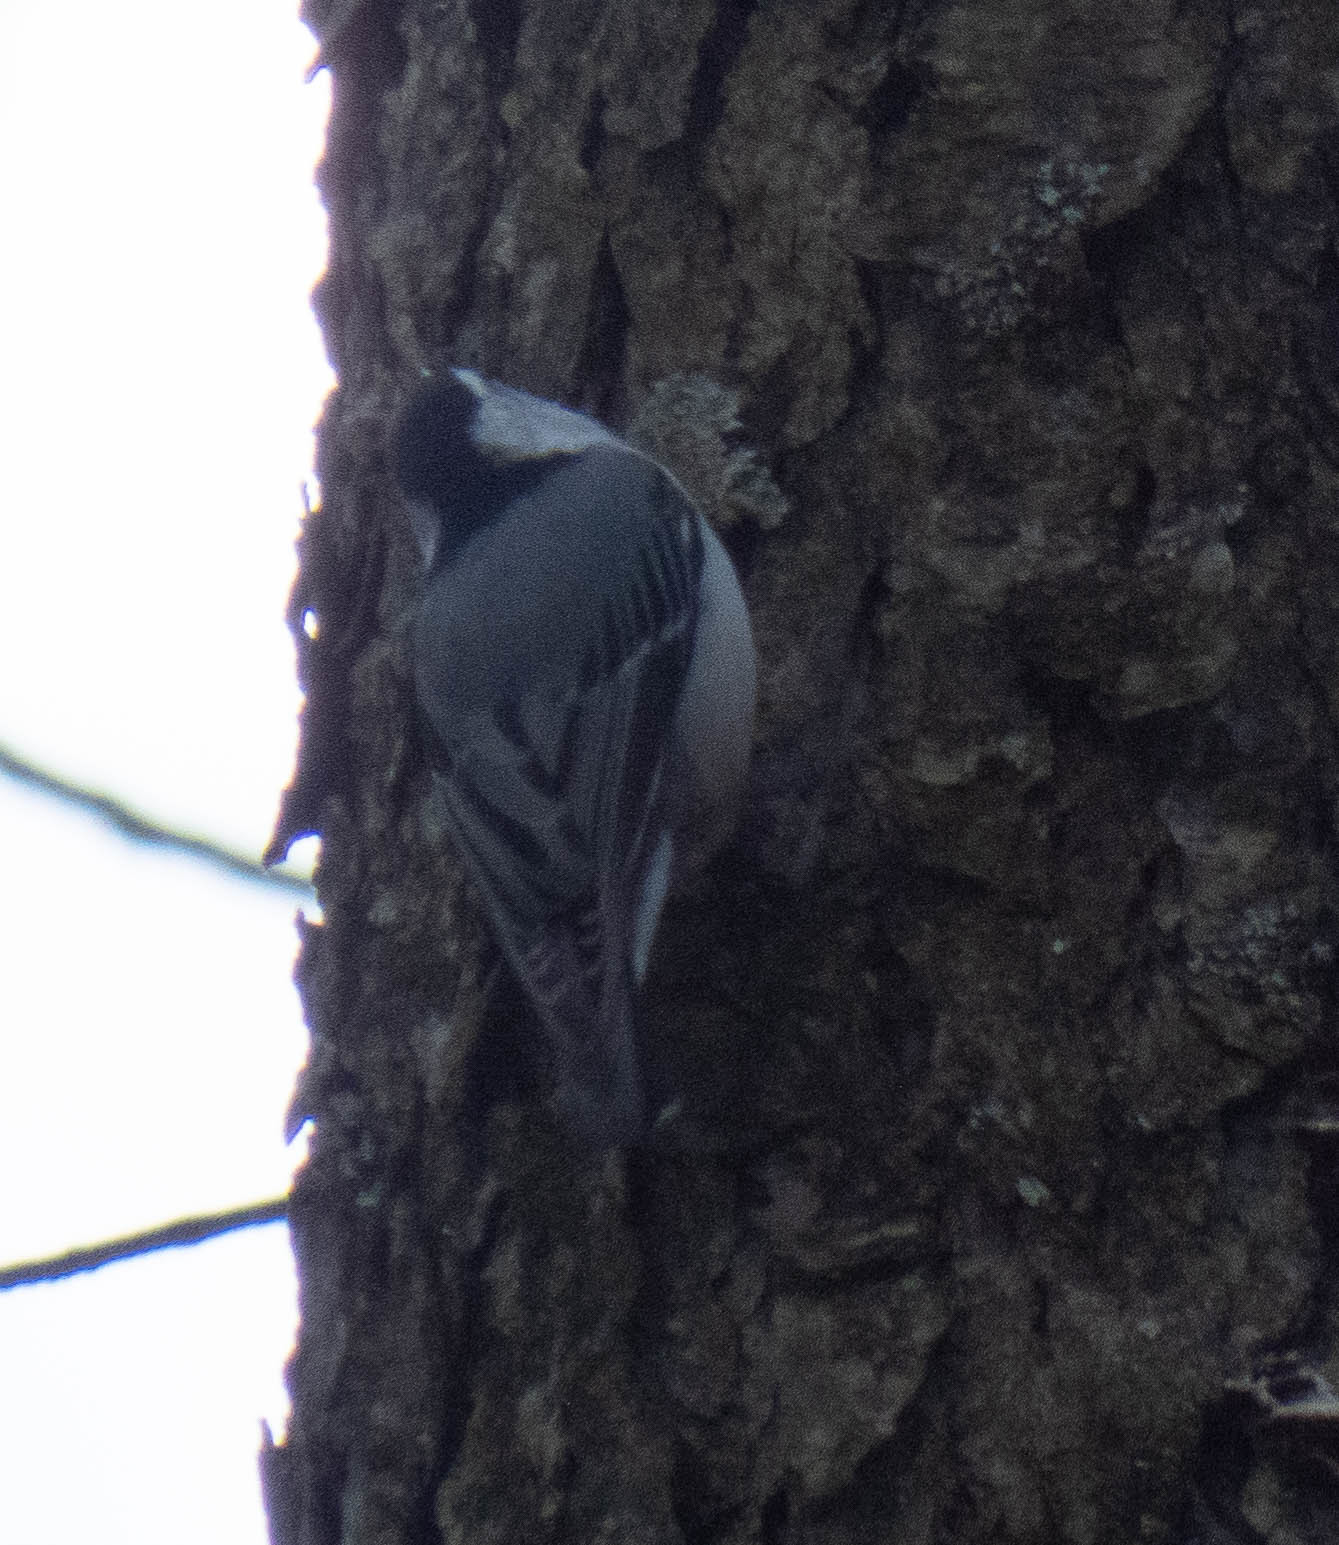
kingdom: Animalia
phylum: Chordata
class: Aves
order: Passeriformes
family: Sittidae
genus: Sitta
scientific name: Sitta carolinensis
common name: White-breasted nuthatch
